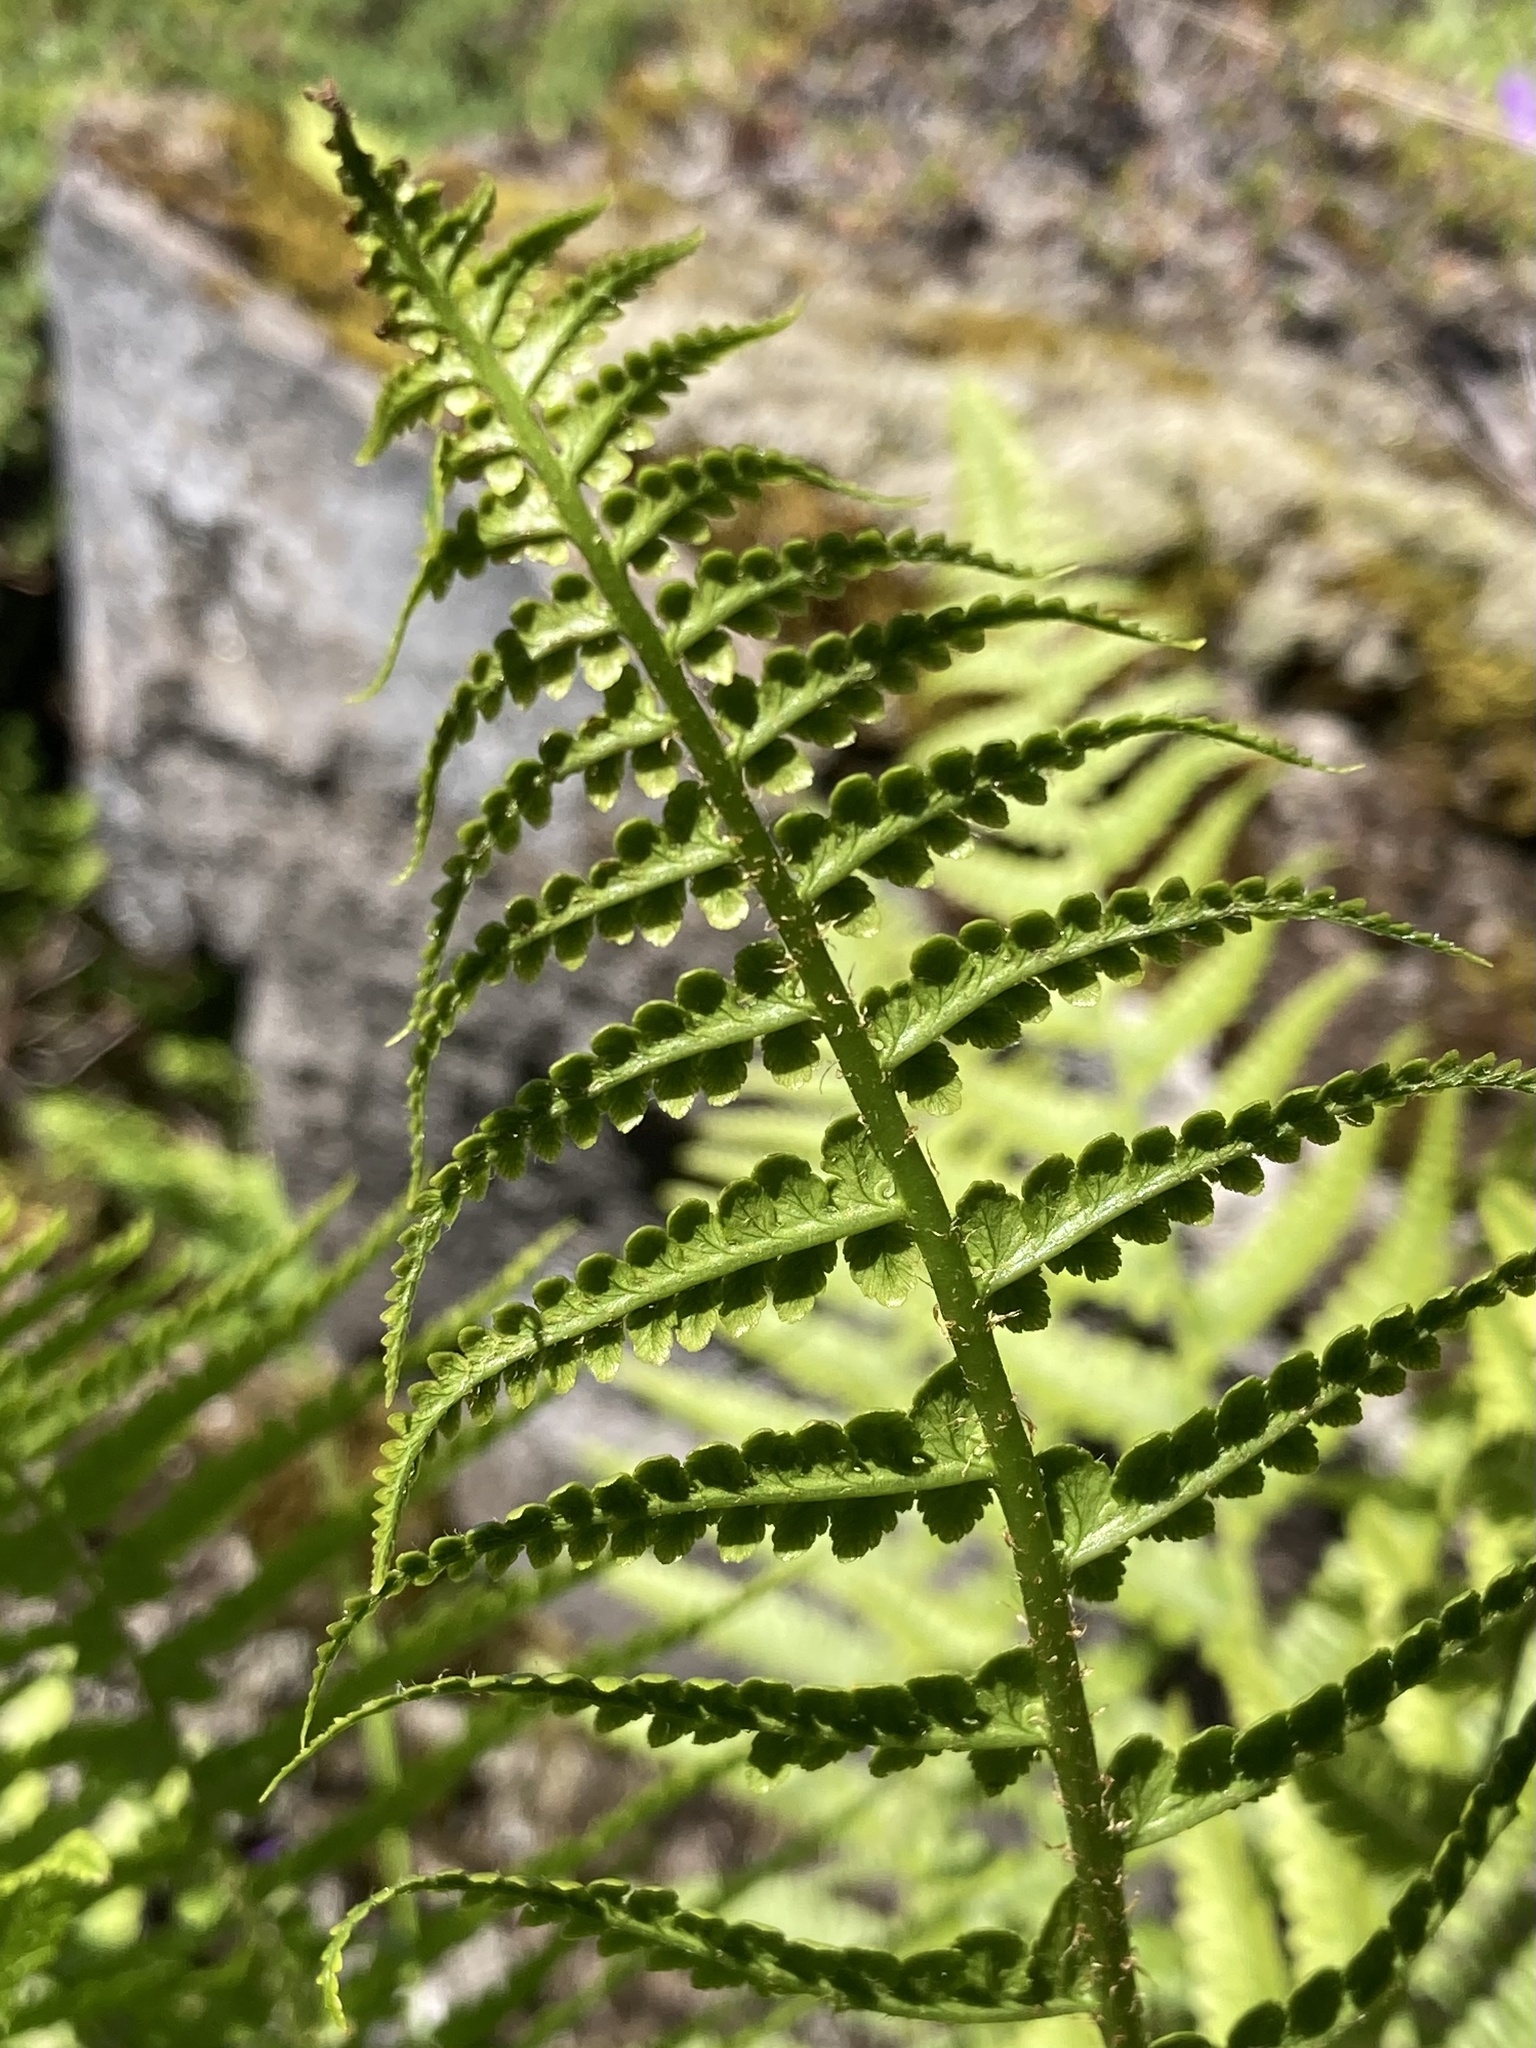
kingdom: Plantae
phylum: Tracheophyta
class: Polypodiopsida
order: Polypodiales
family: Dryopteridaceae
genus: Dryopteris
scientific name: Dryopteris filix-mas
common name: Male fern
